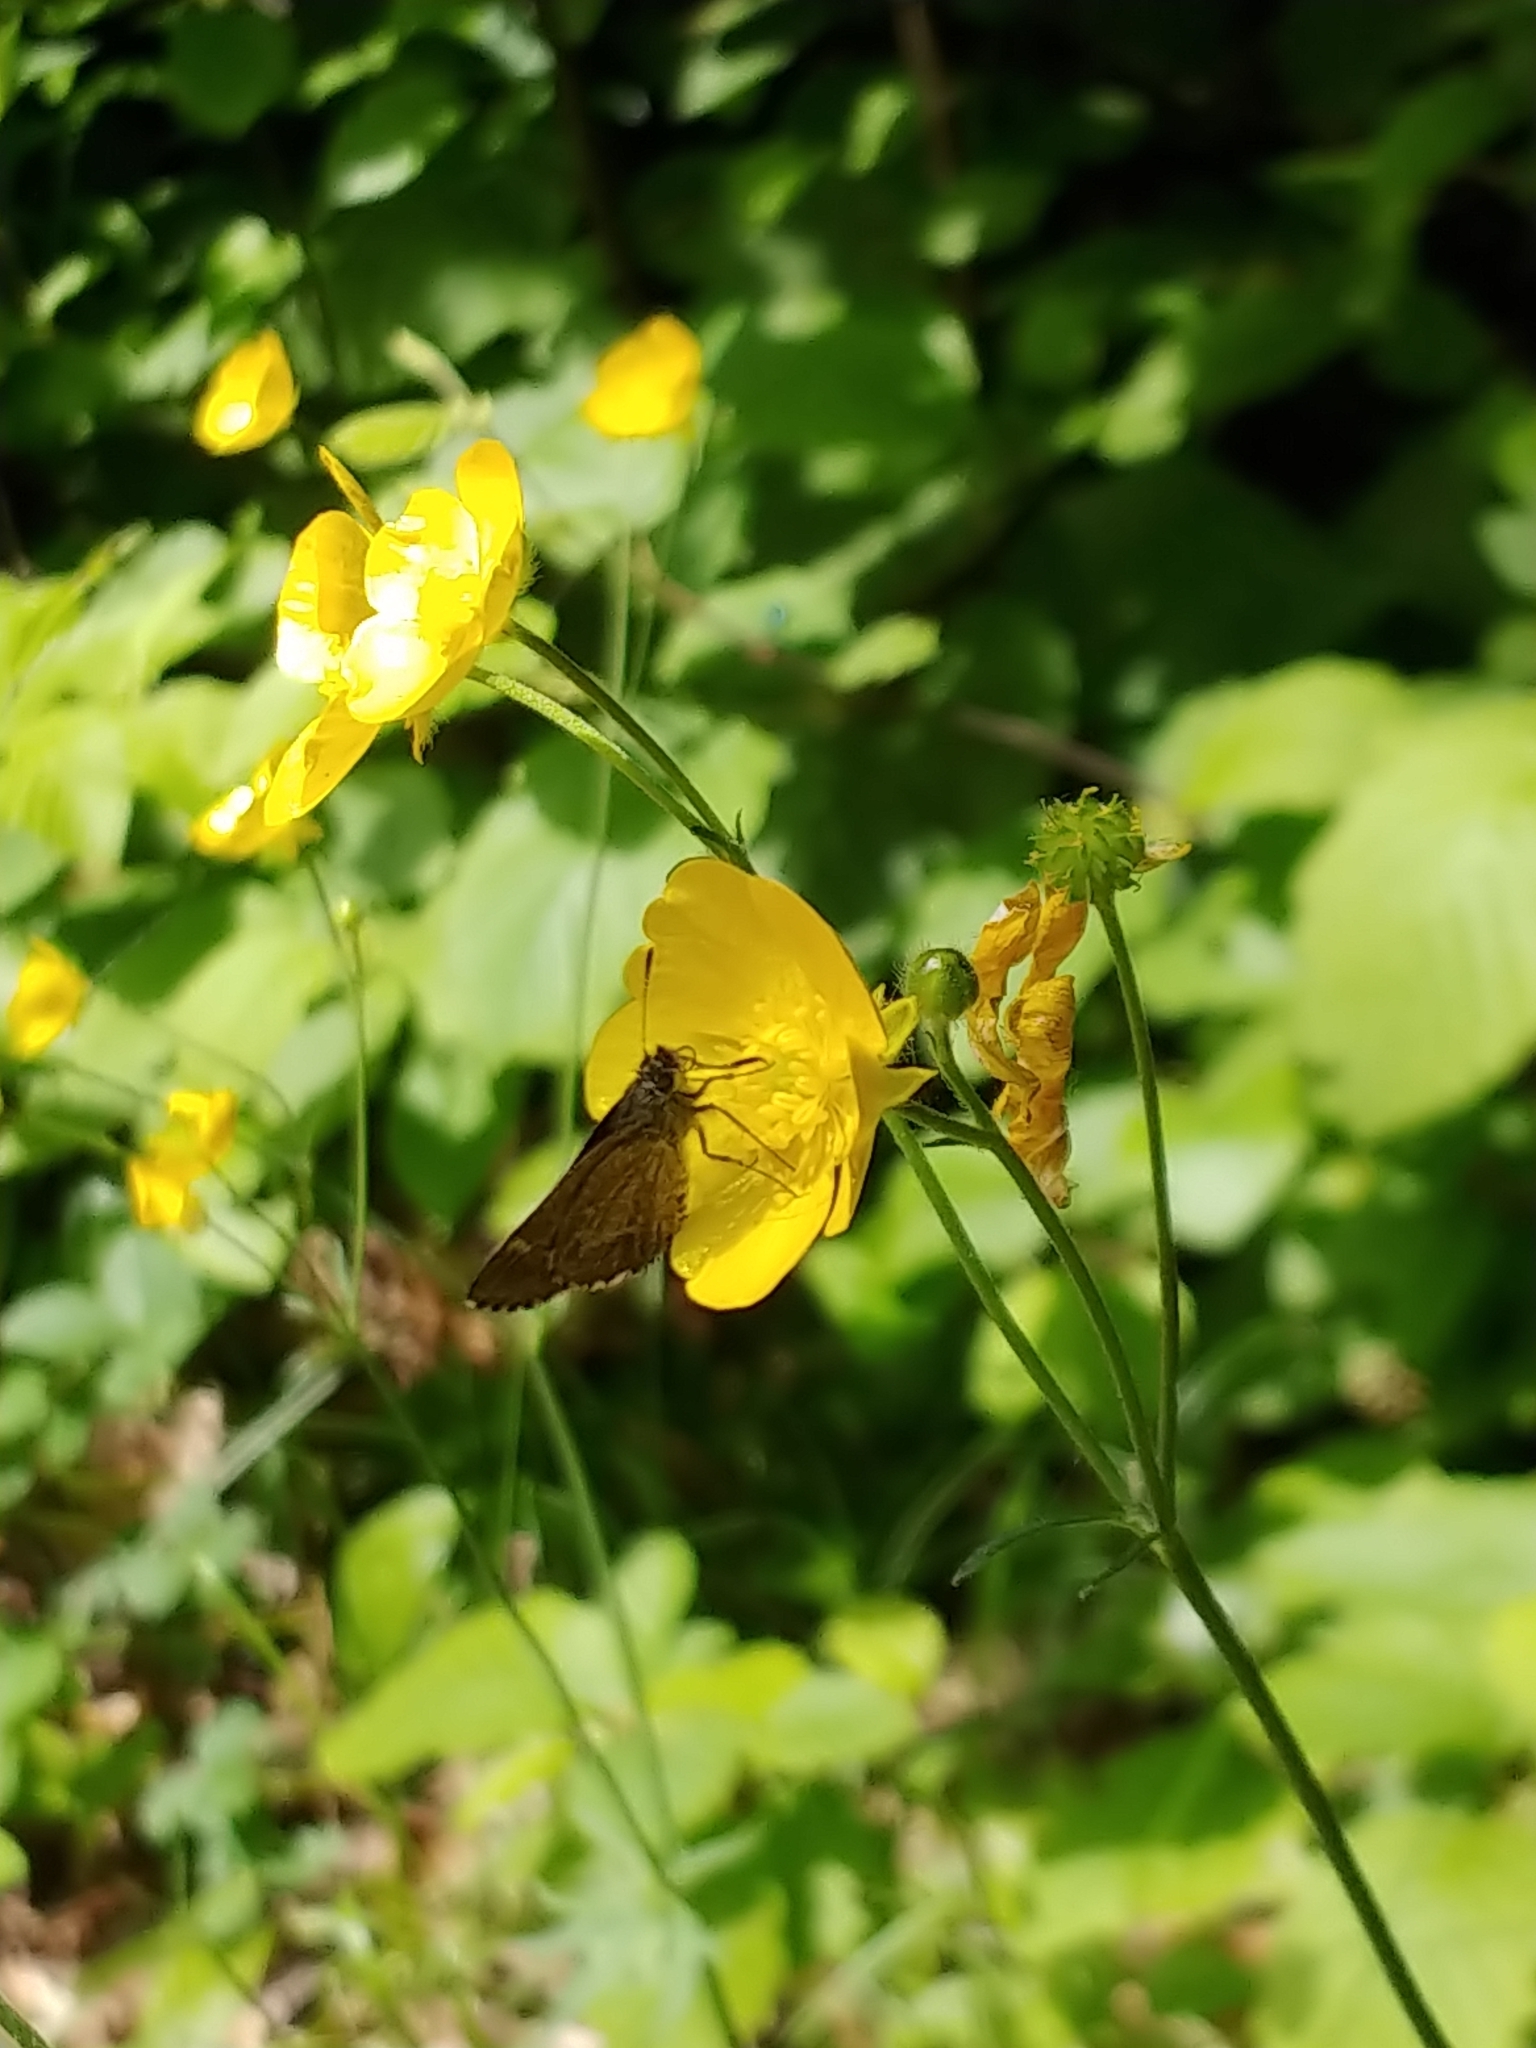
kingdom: Animalia
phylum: Arthropoda
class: Insecta
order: Lepidoptera
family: Hesperiidae
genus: Mastor
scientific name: Mastor hegon
